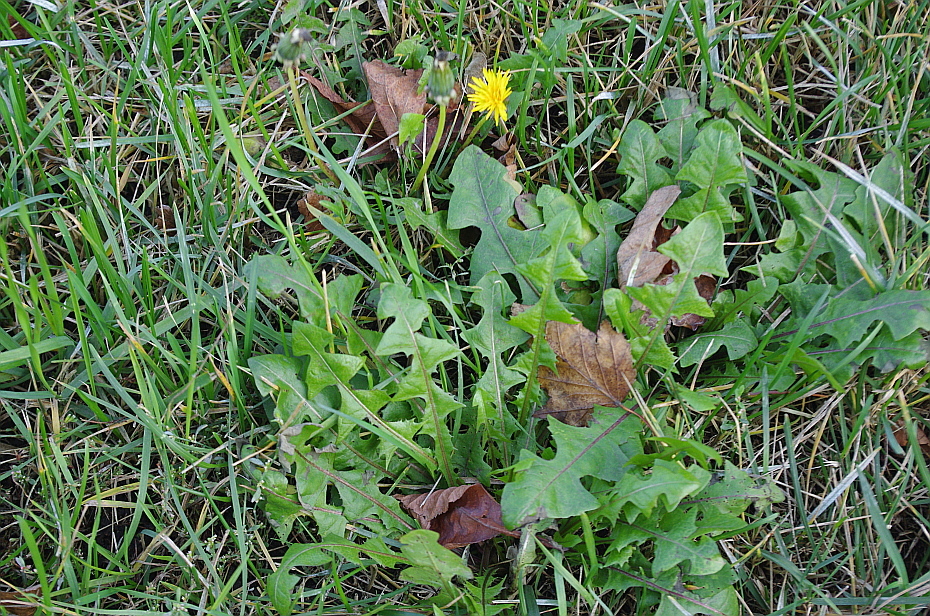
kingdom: Plantae
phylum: Tracheophyta
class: Magnoliopsida
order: Asterales
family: Asteraceae
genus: Taraxacum
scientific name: Taraxacum officinale
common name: Common dandelion
